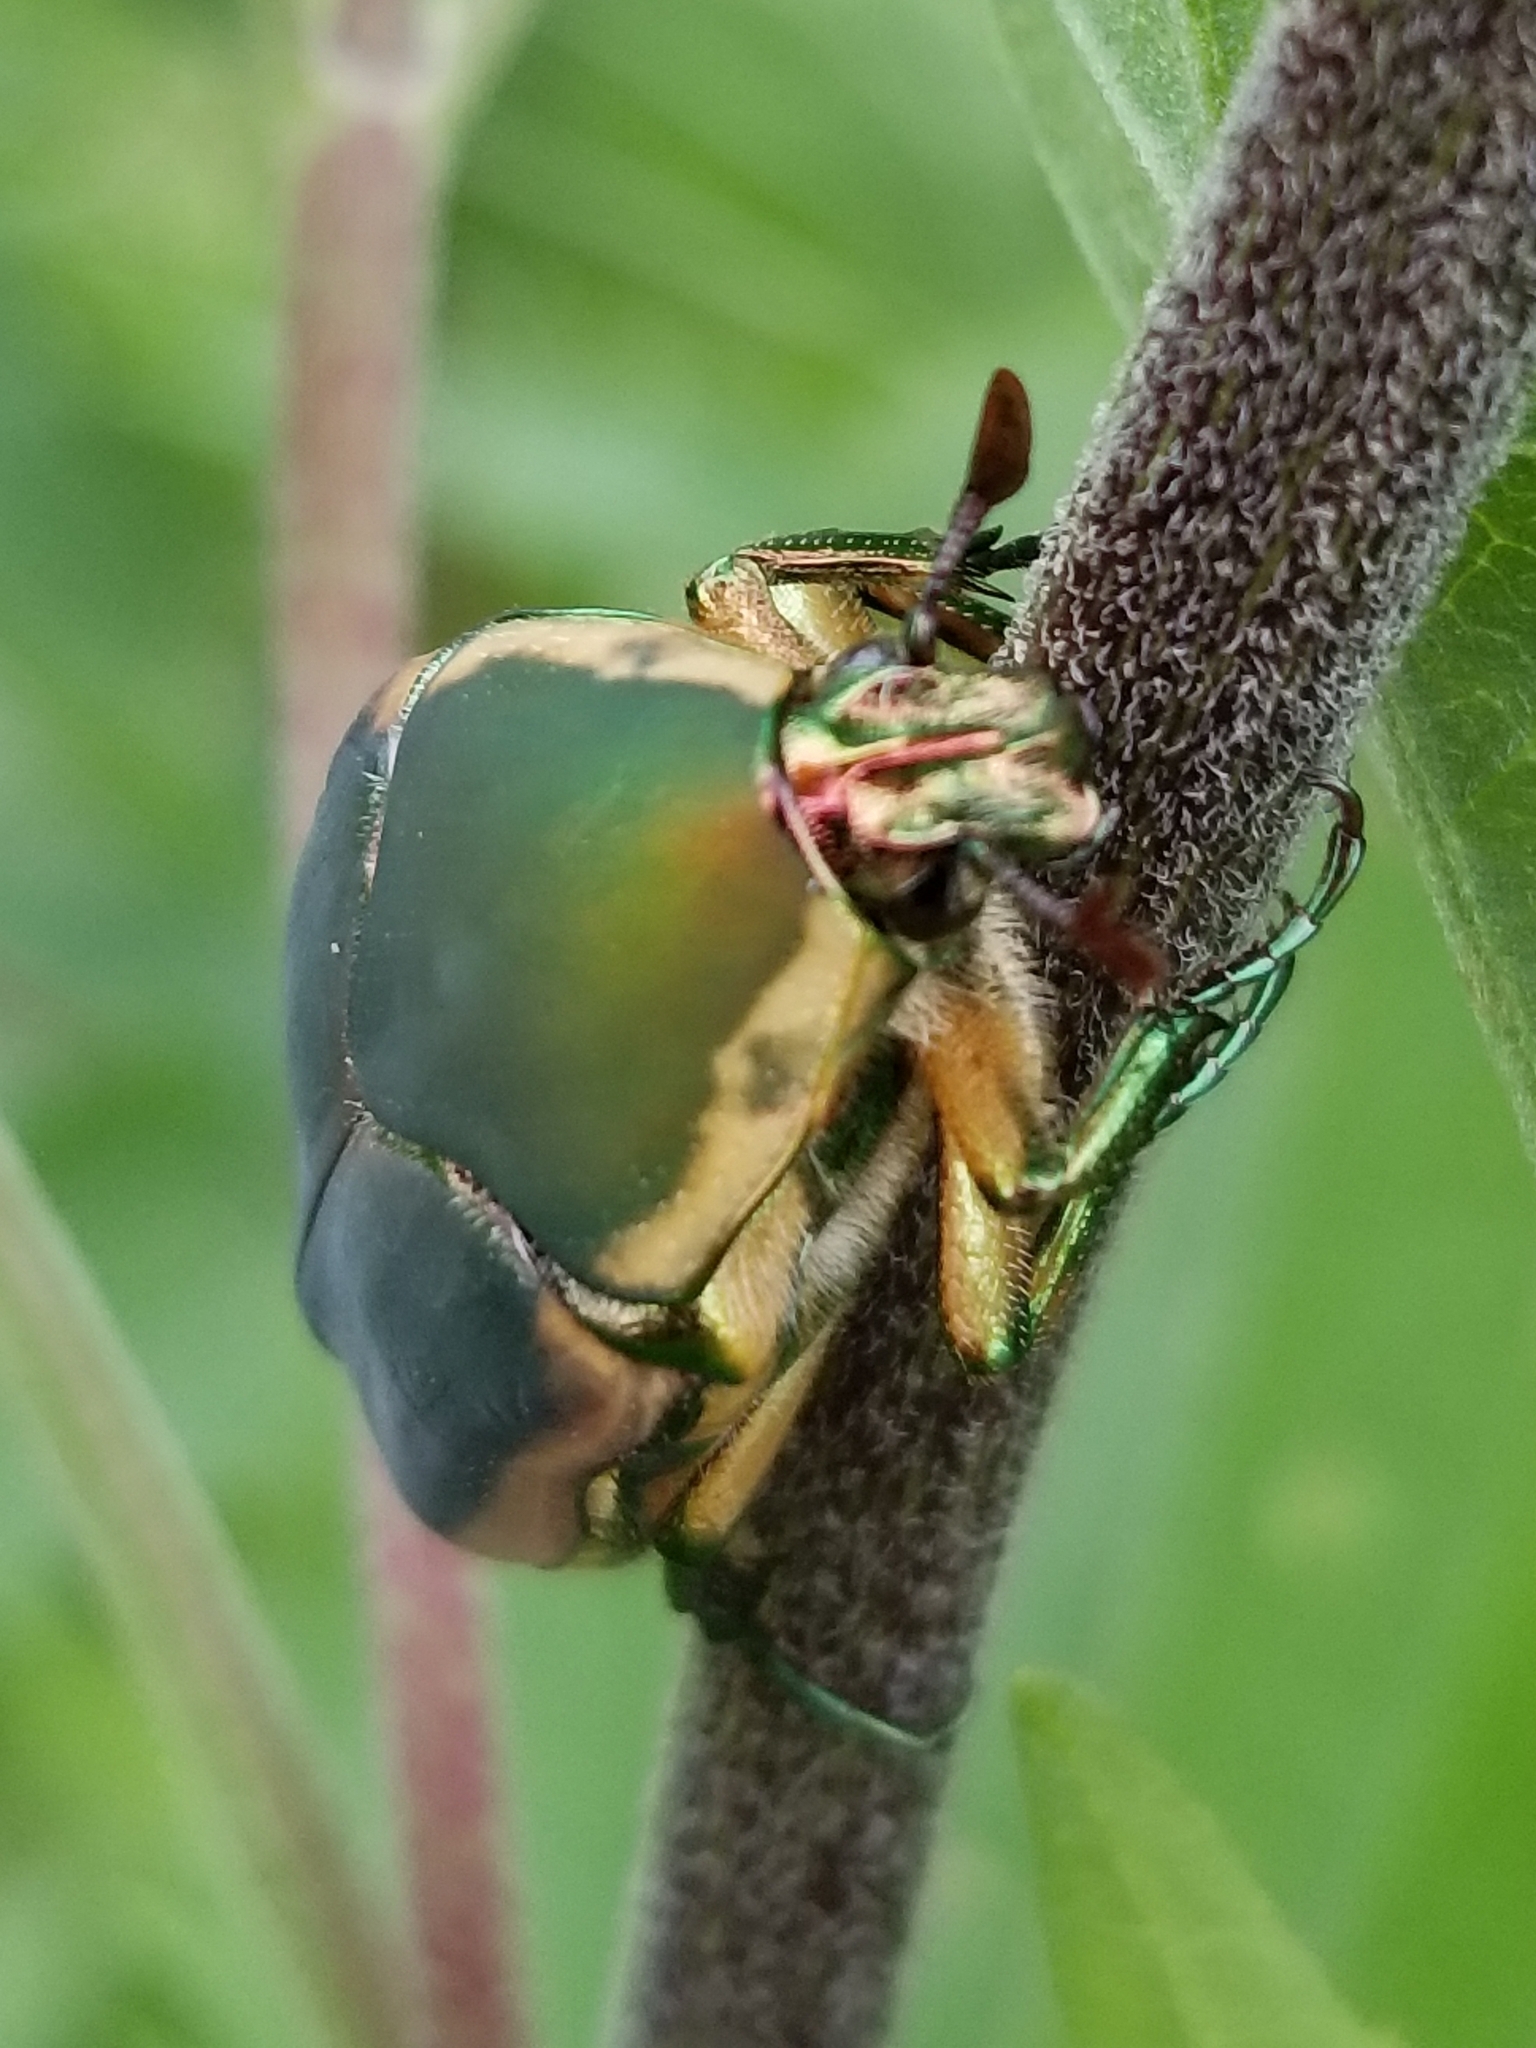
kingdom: Animalia
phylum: Arthropoda
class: Insecta
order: Coleoptera
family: Scarabaeidae
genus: Cotinis
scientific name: Cotinis nitida
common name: Common green june beetle
